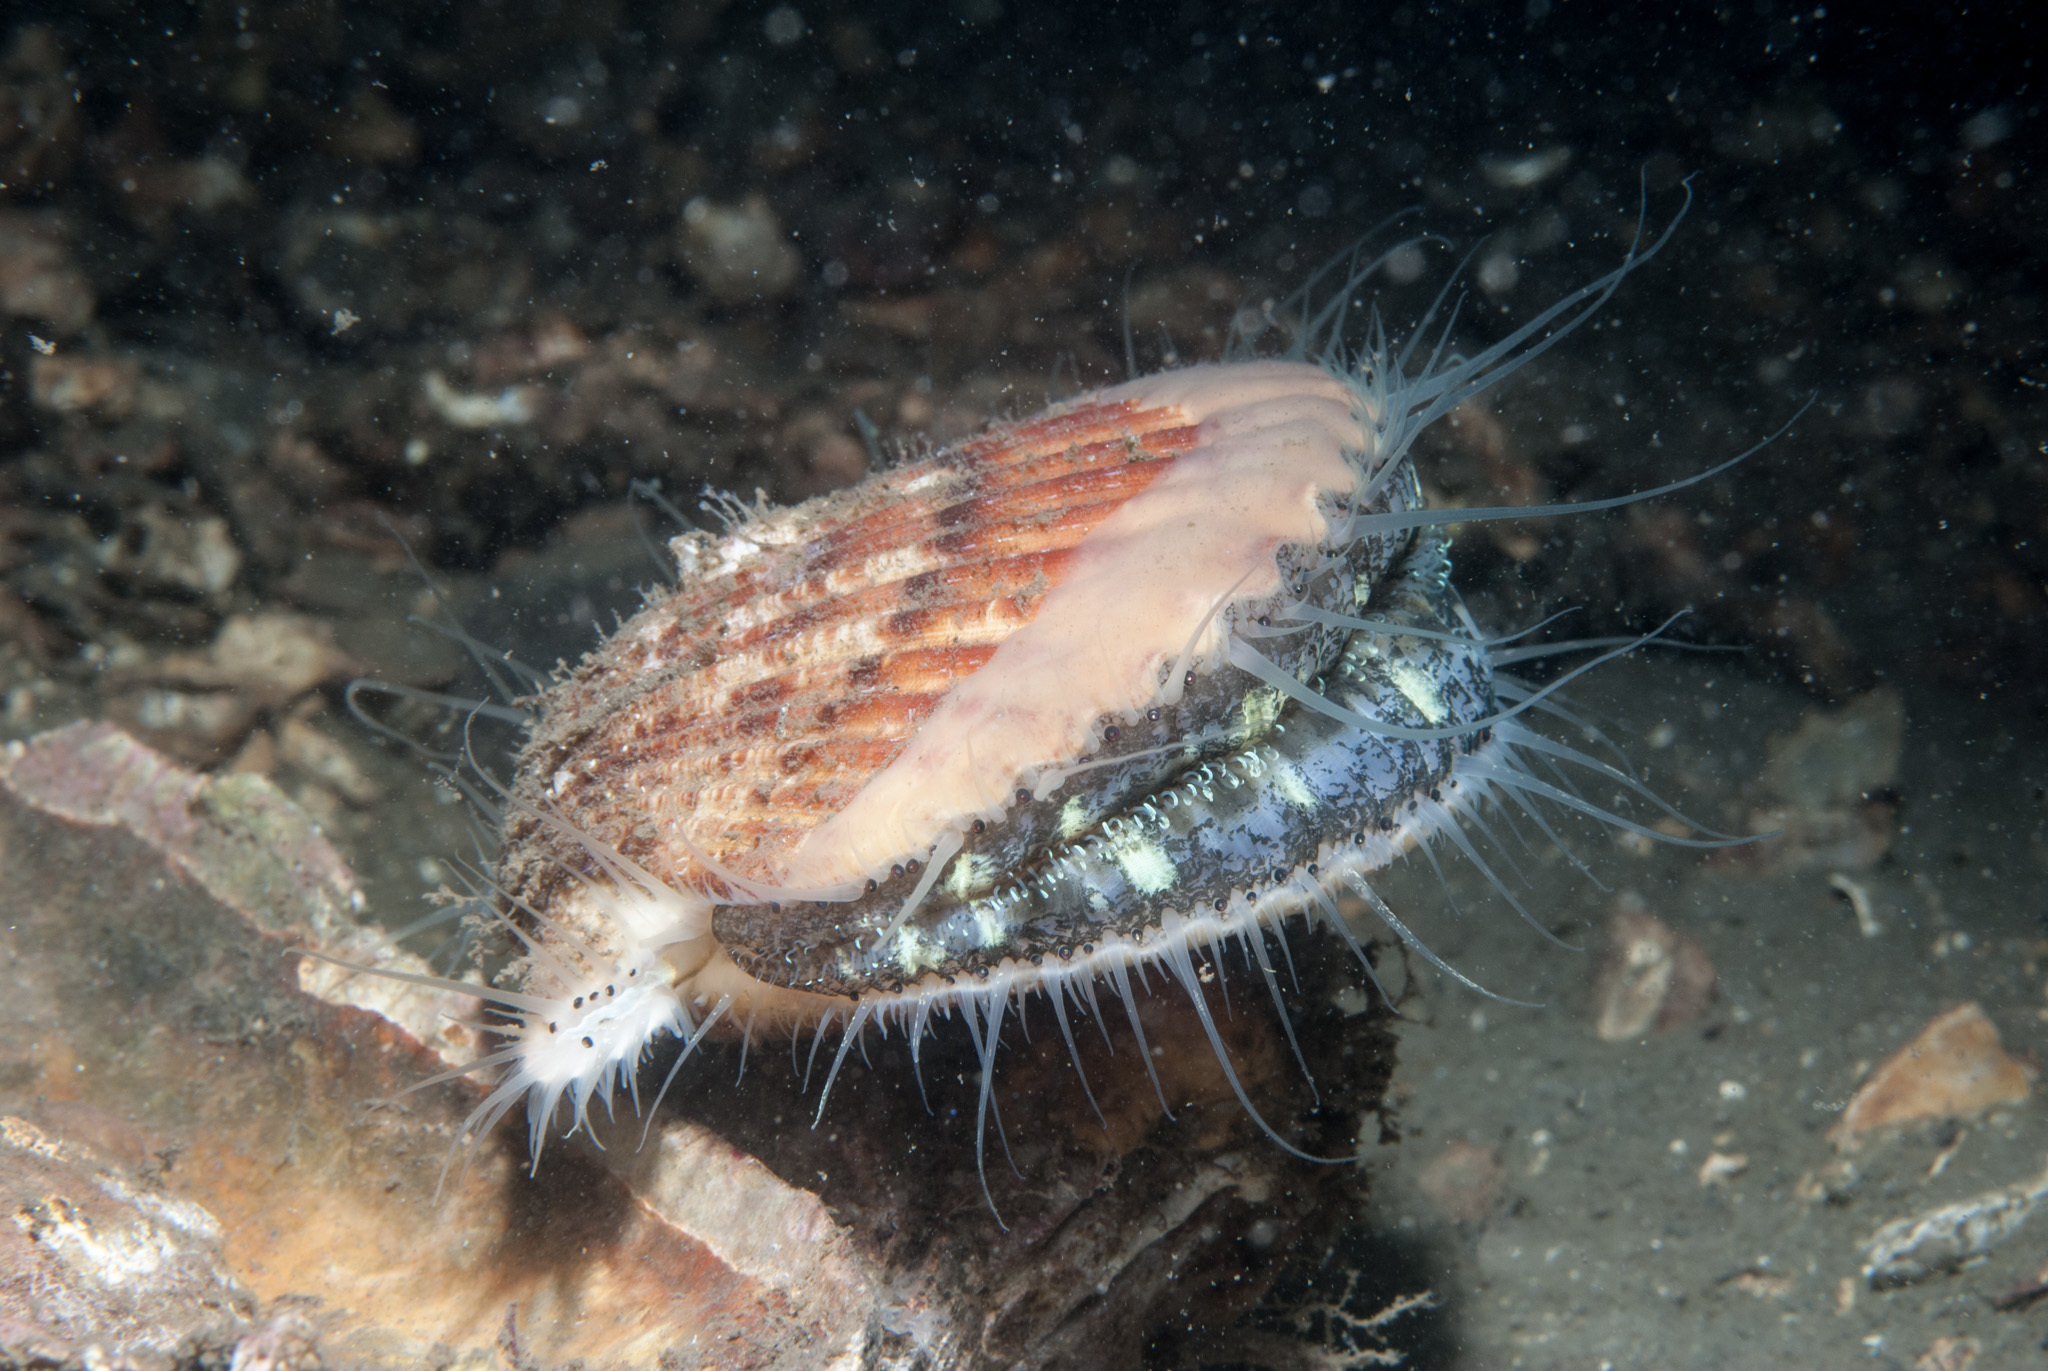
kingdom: Animalia
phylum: Mollusca
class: Bivalvia
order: Pectinida
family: Pectinidae
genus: Aequipecten
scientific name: Aequipecten opercularis
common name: Queen scallop
